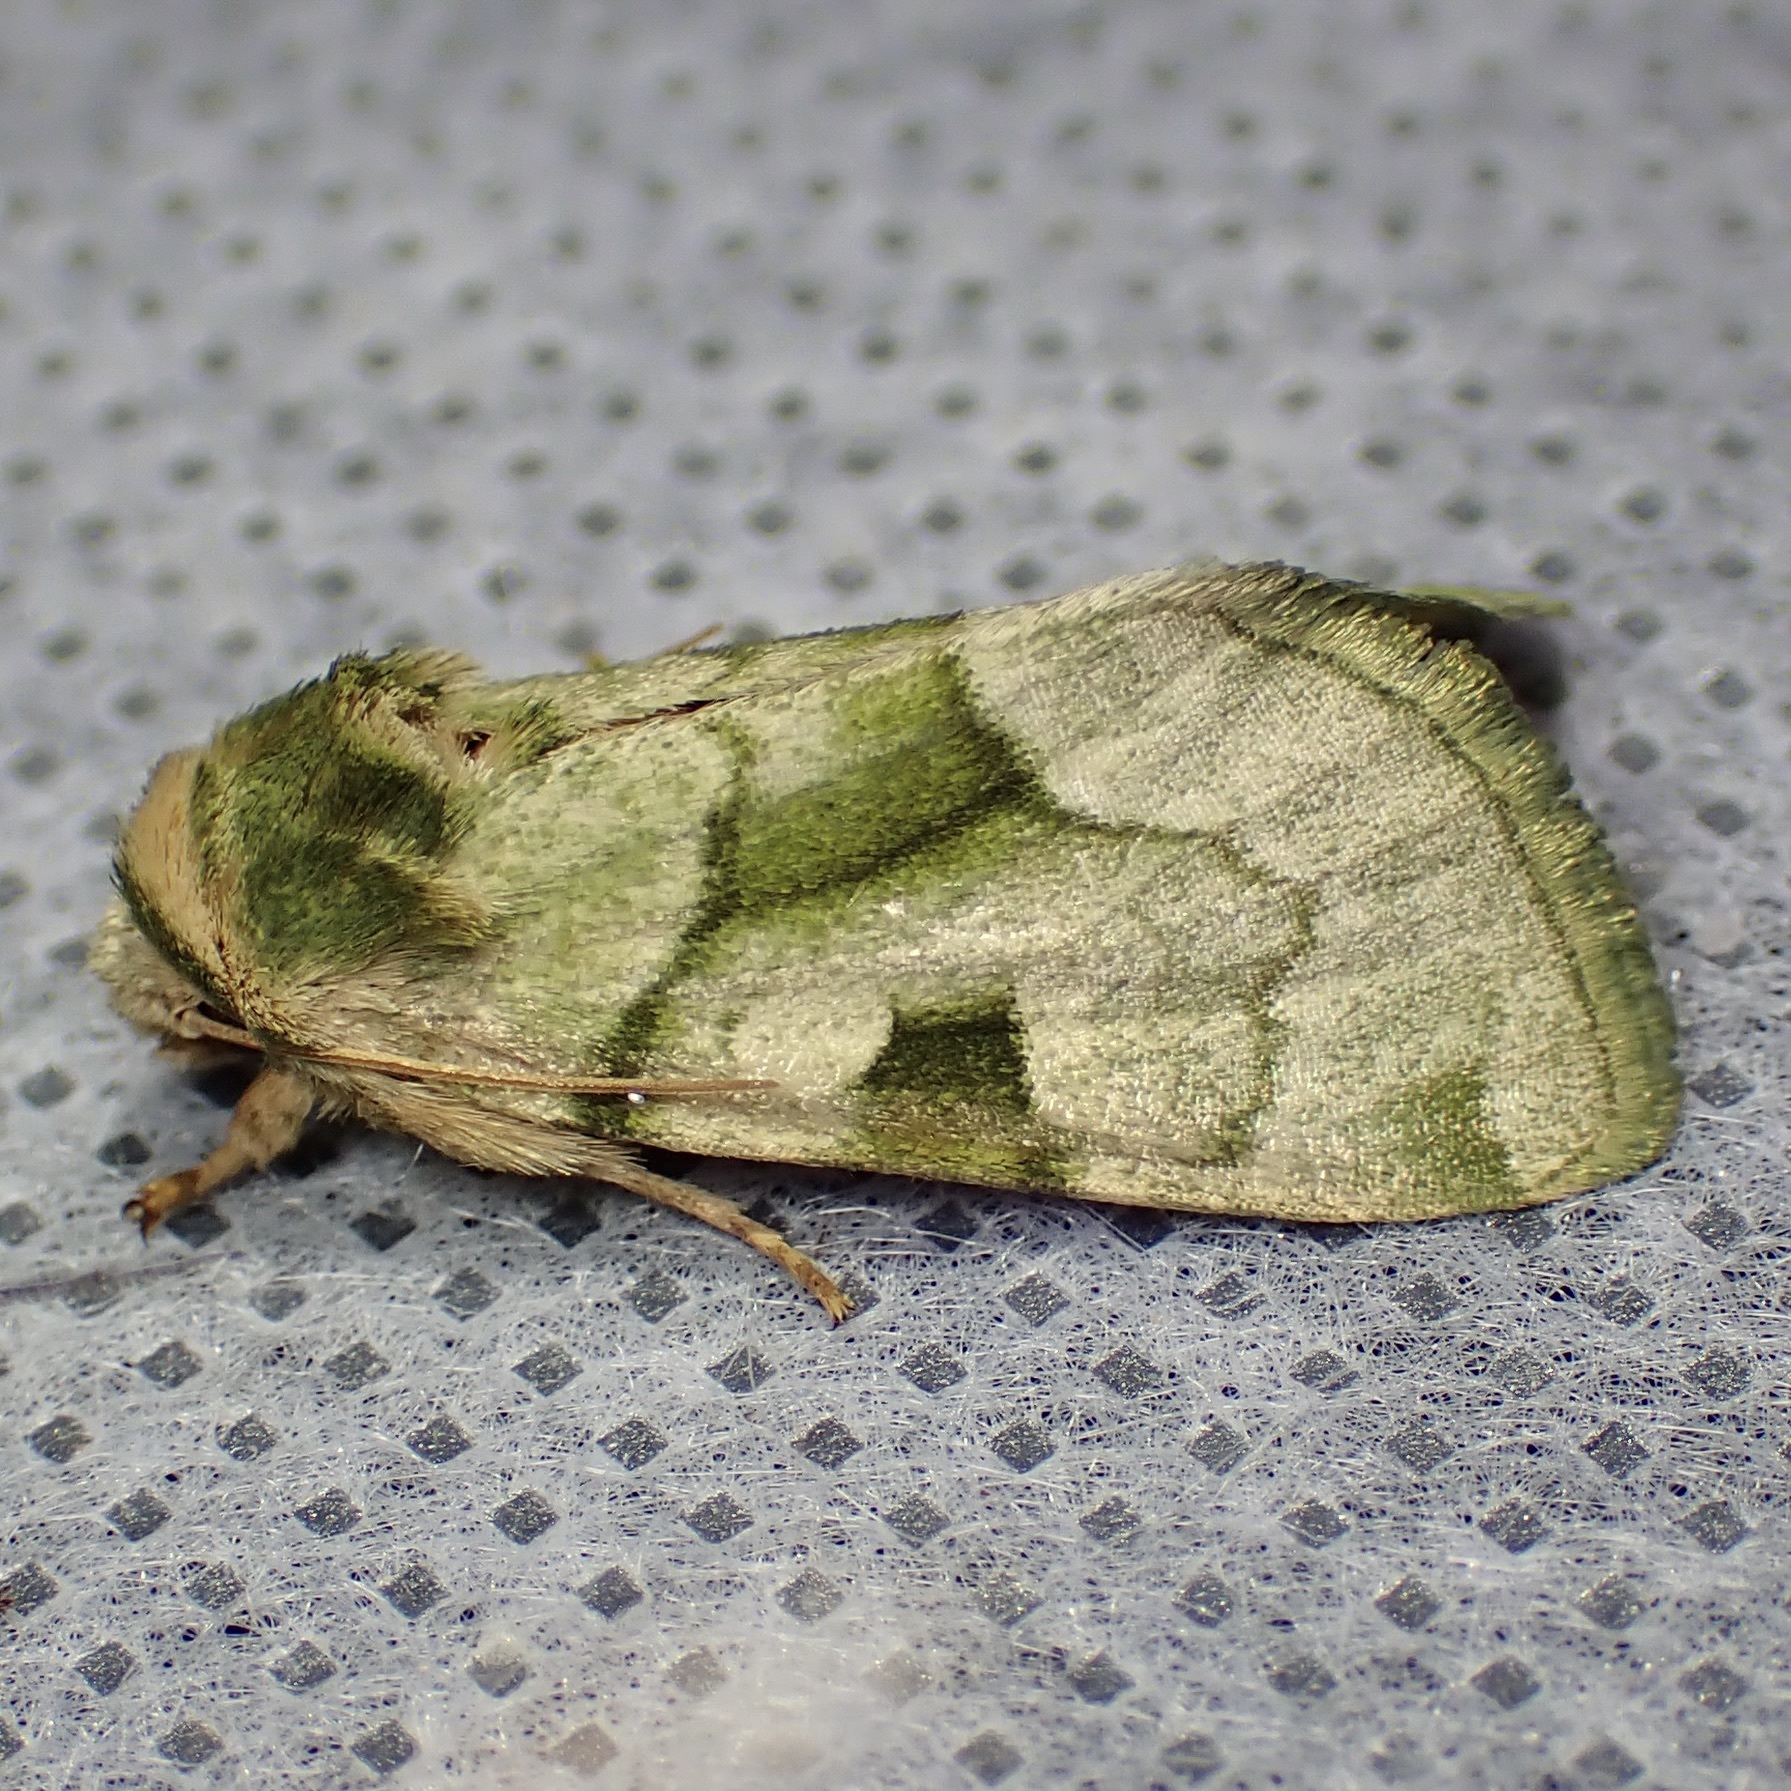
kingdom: Animalia
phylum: Arthropoda
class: Insecta
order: Lepidoptera
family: Noctuidae
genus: Oslaria
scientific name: Oslaria viridifera
